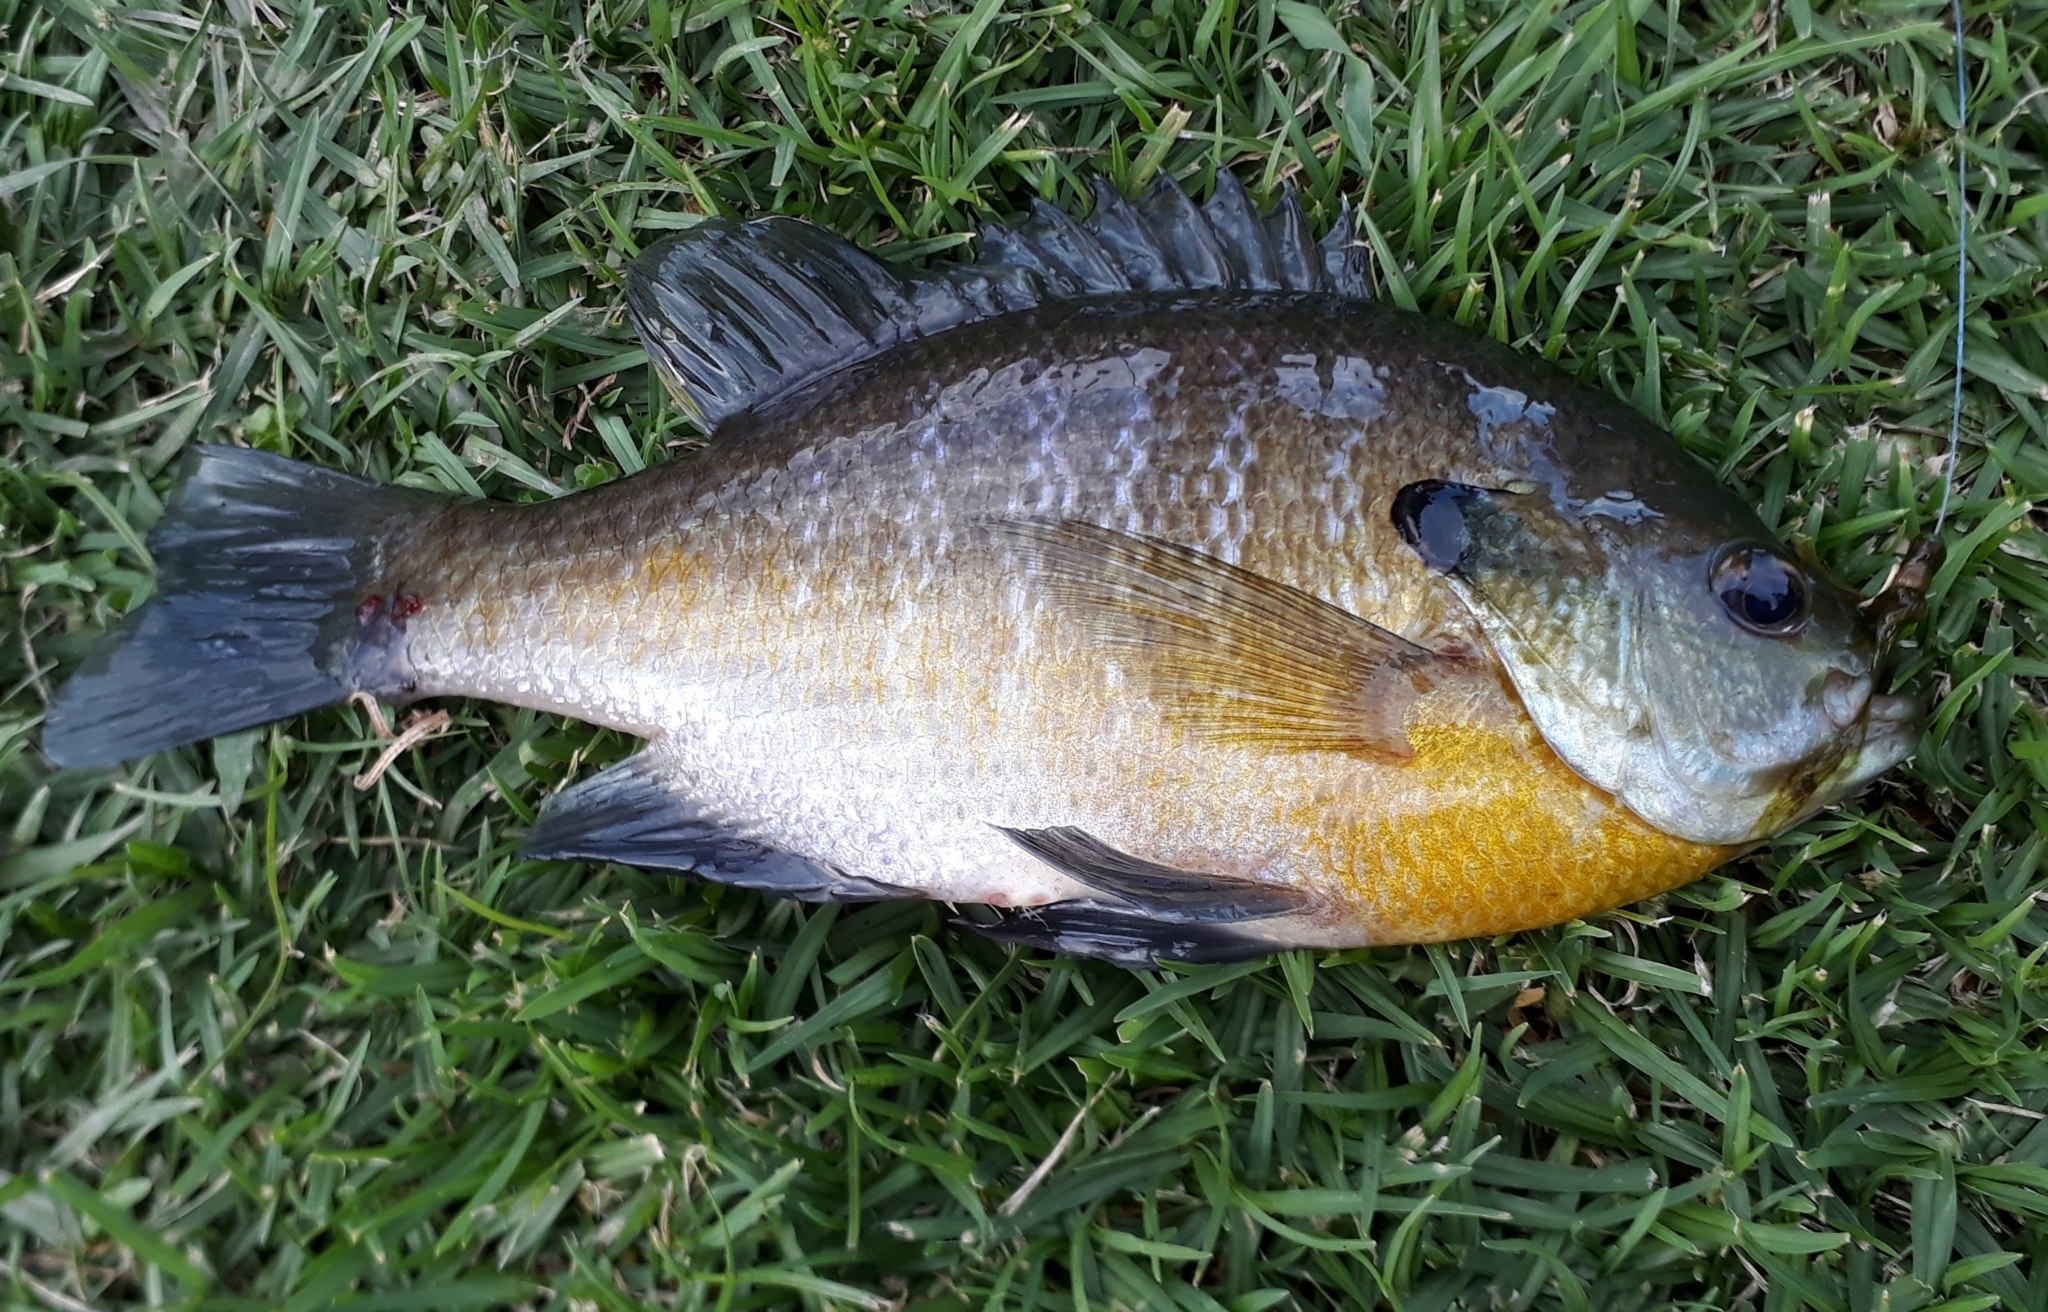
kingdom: Animalia
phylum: Chordata
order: Perciformes
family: Centrarchidae
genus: Lepomis
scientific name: Lepomis macrochirus
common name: Bluegill
